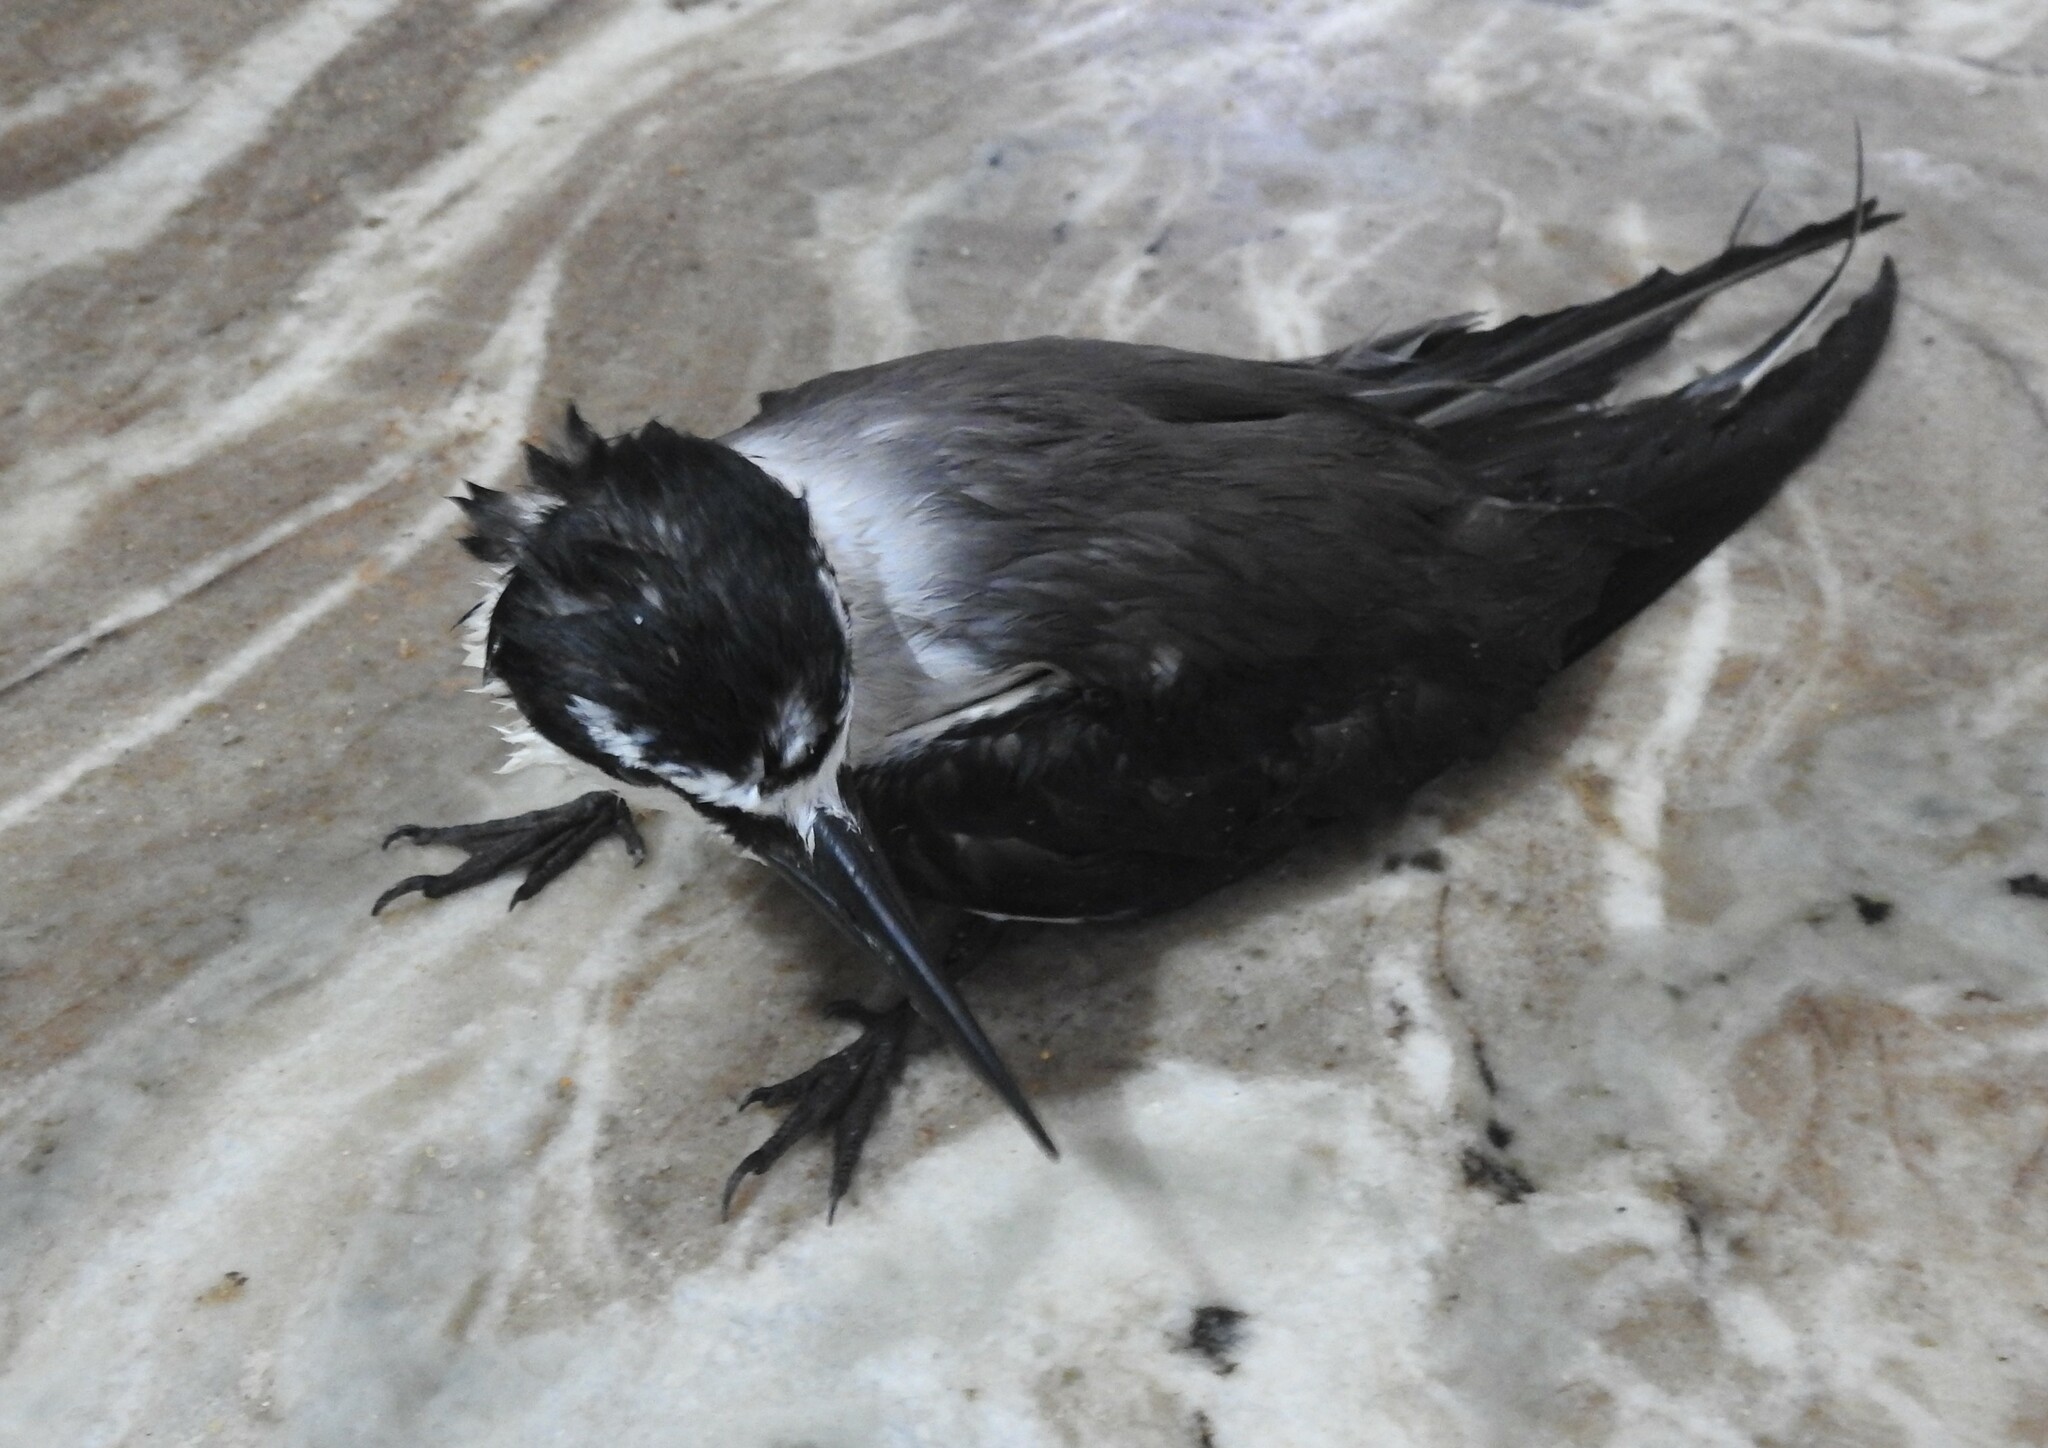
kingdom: Animalia
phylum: Chordata
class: Aves
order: Charadriiformes
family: Laridae
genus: Onychoprion
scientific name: Onychoprion anaethetus
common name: Bridled tern
